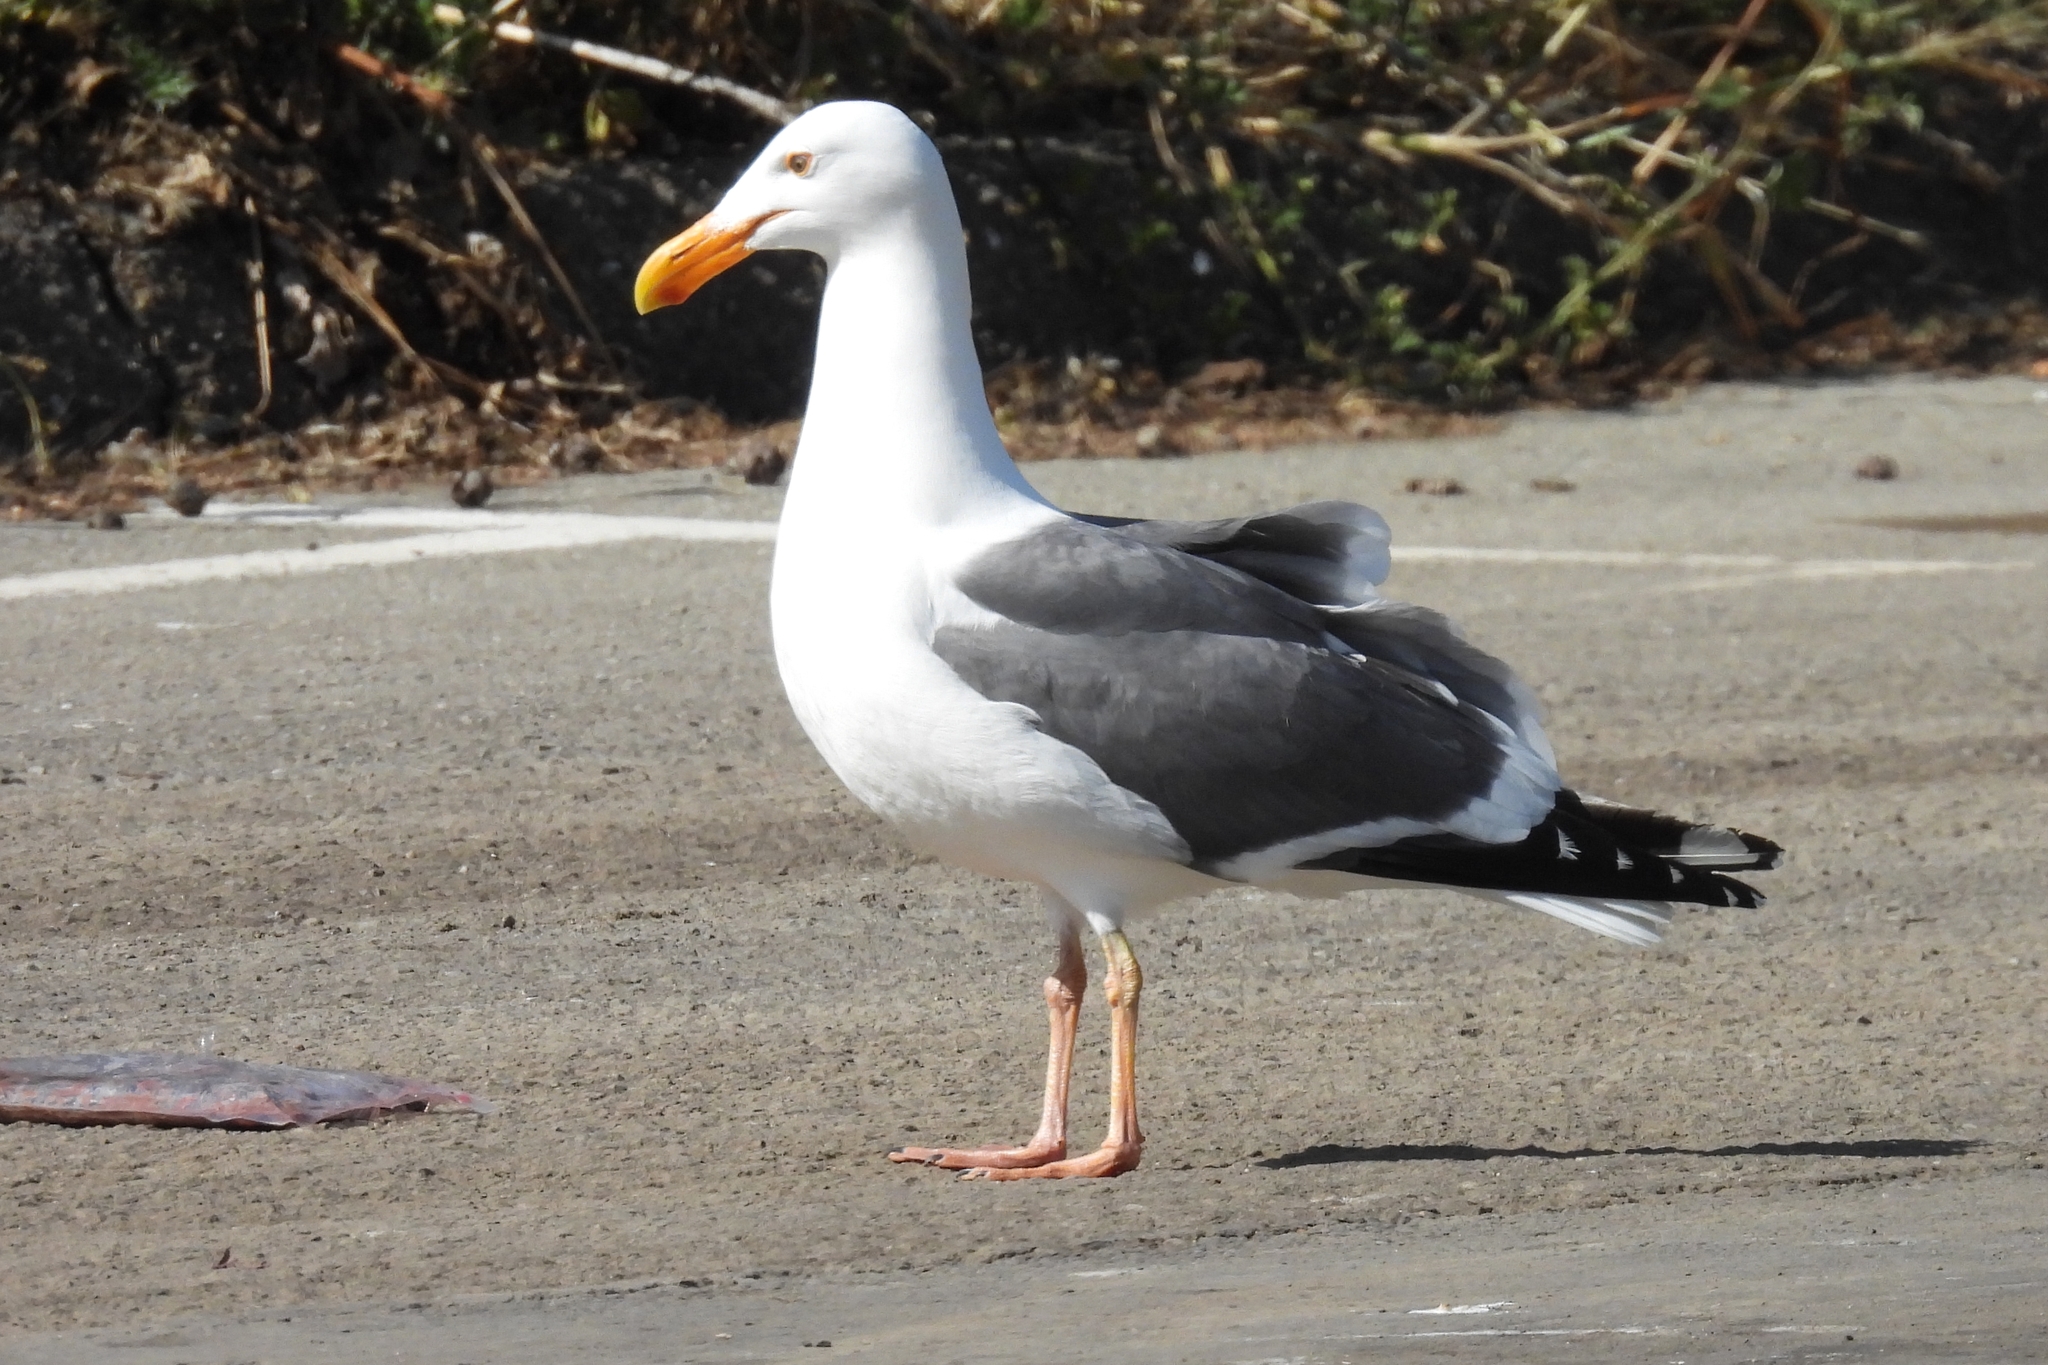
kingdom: Animalia
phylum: Chordata
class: Aves
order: Charadriiformes
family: Laridae
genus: Larus
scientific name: Larus occidentalis
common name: Western gull
